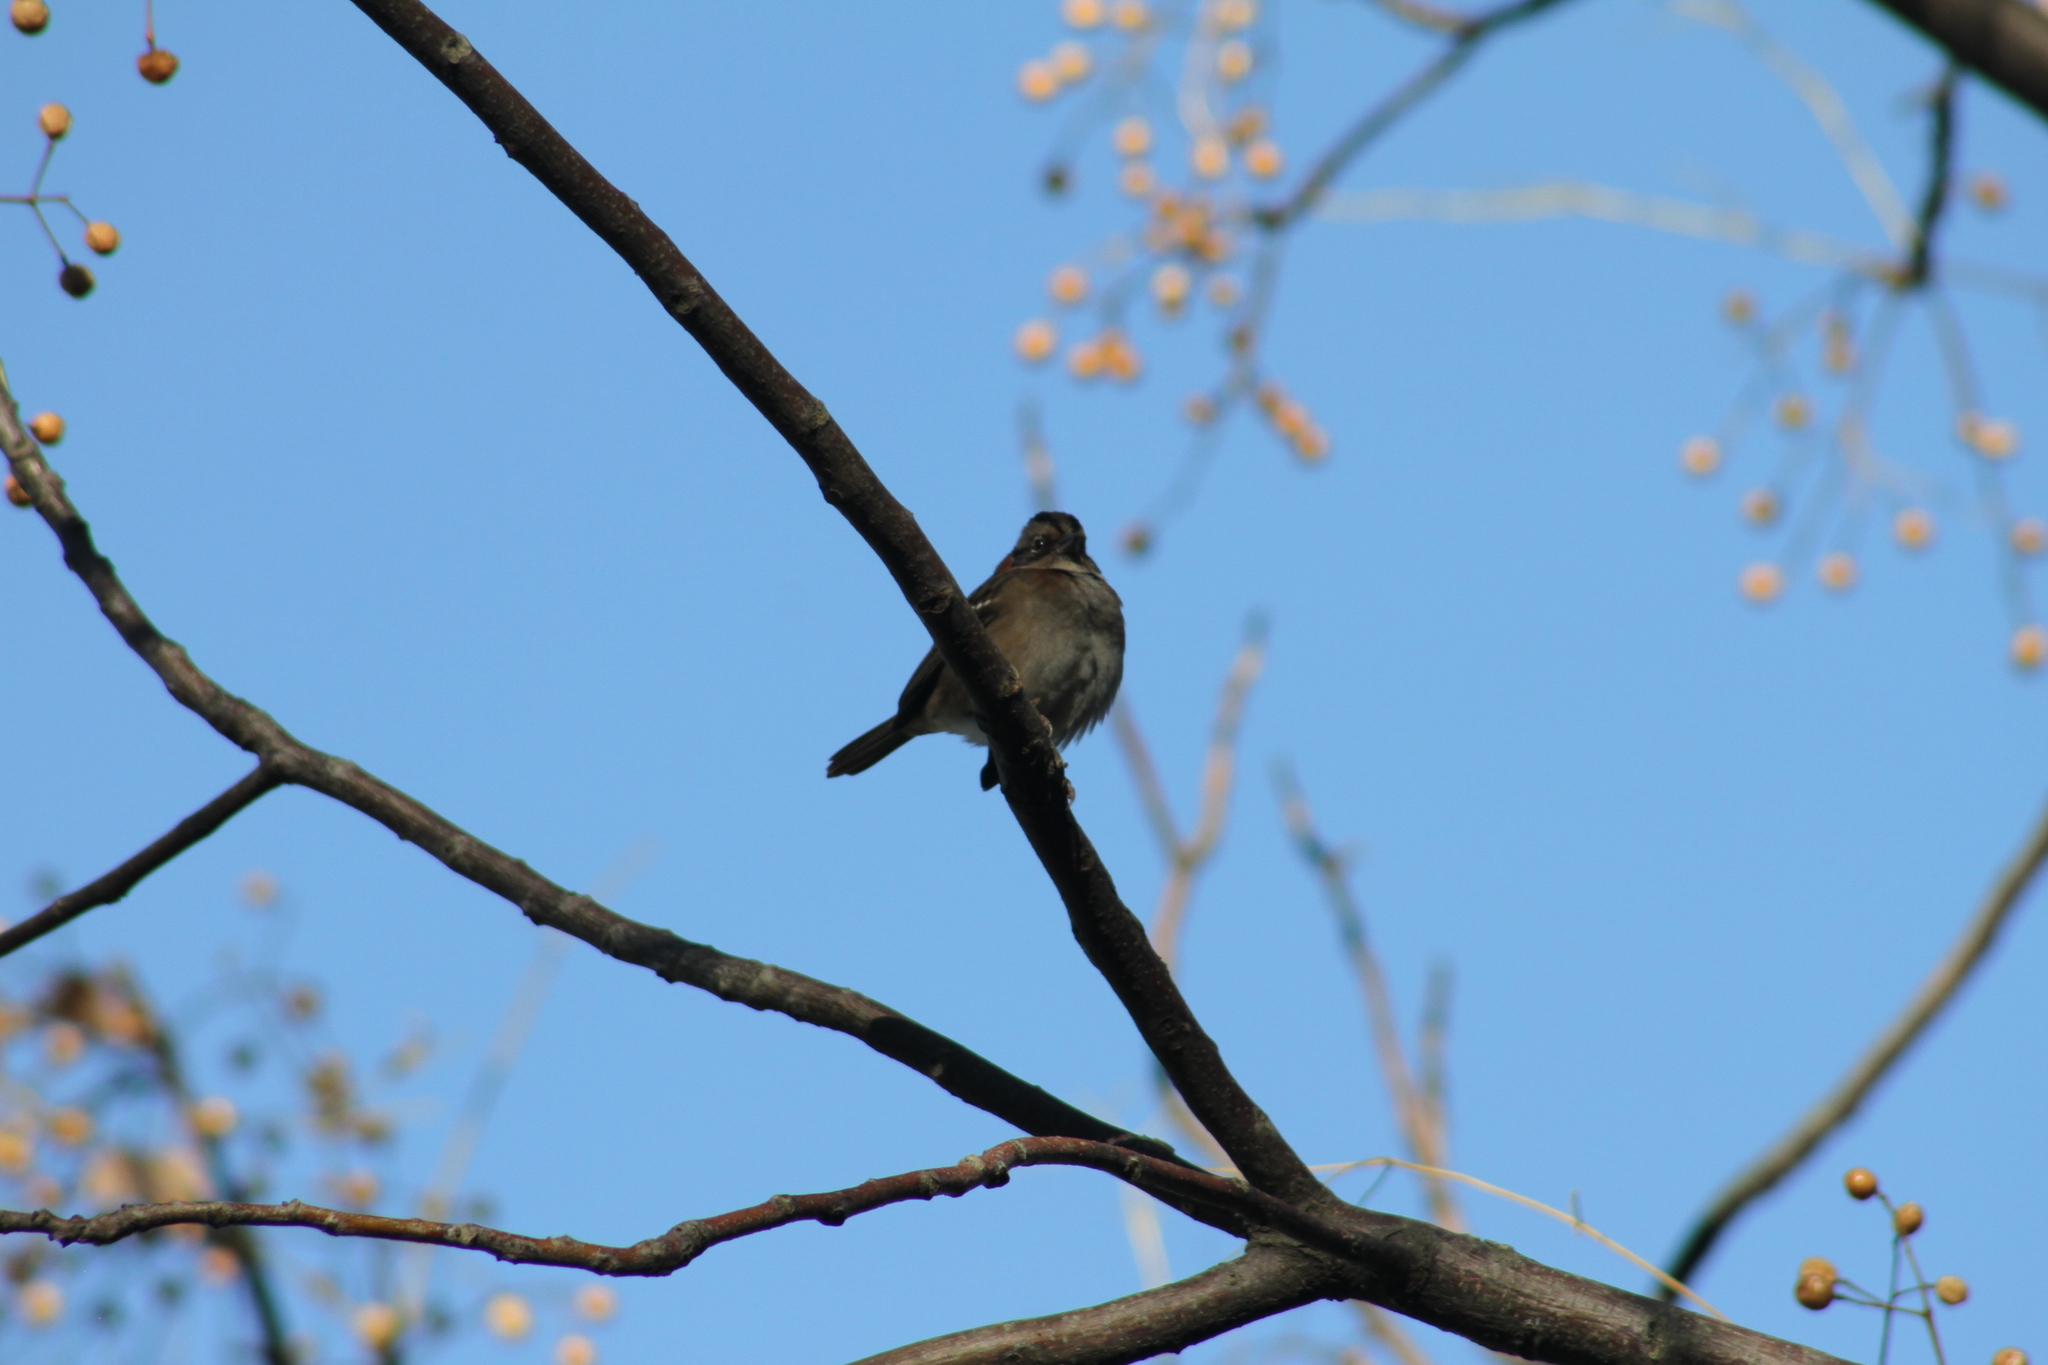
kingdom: Animalia
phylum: Chordata
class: Aves
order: Passeriformes
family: Passerellidae
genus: Zonotrichia
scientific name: Zonotrichia capensis
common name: Rufous-collared sparrow
